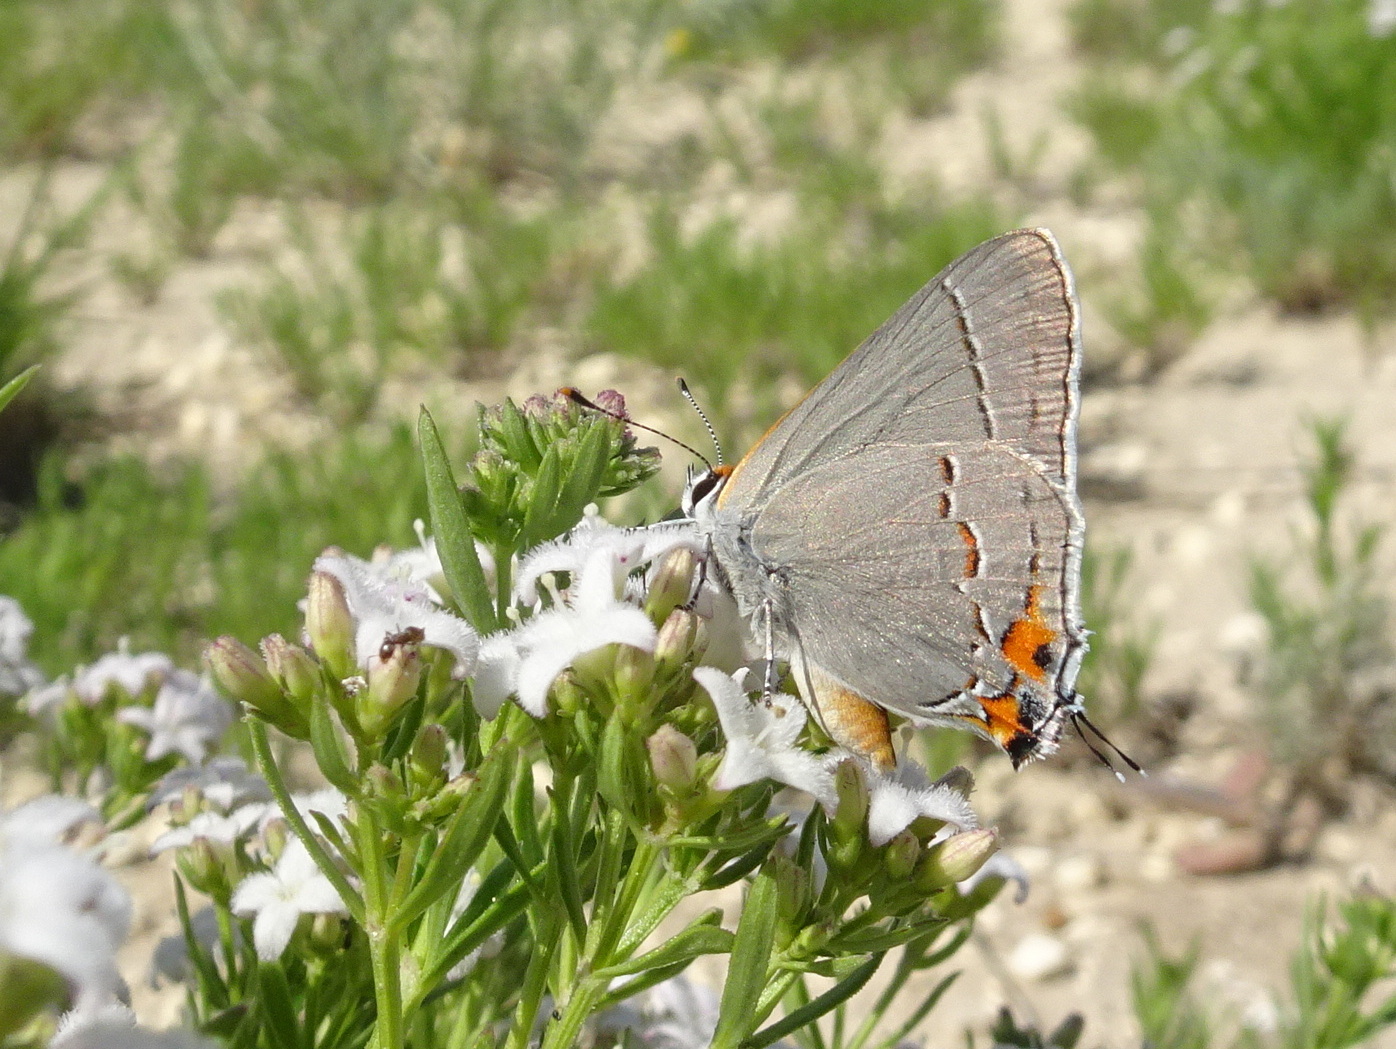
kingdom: Animalia
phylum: Arthropoda
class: Insecta
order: Lepidoptera
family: Lycaenidae
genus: Strymon
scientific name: Strymon melinus
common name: Gray hairstreak
